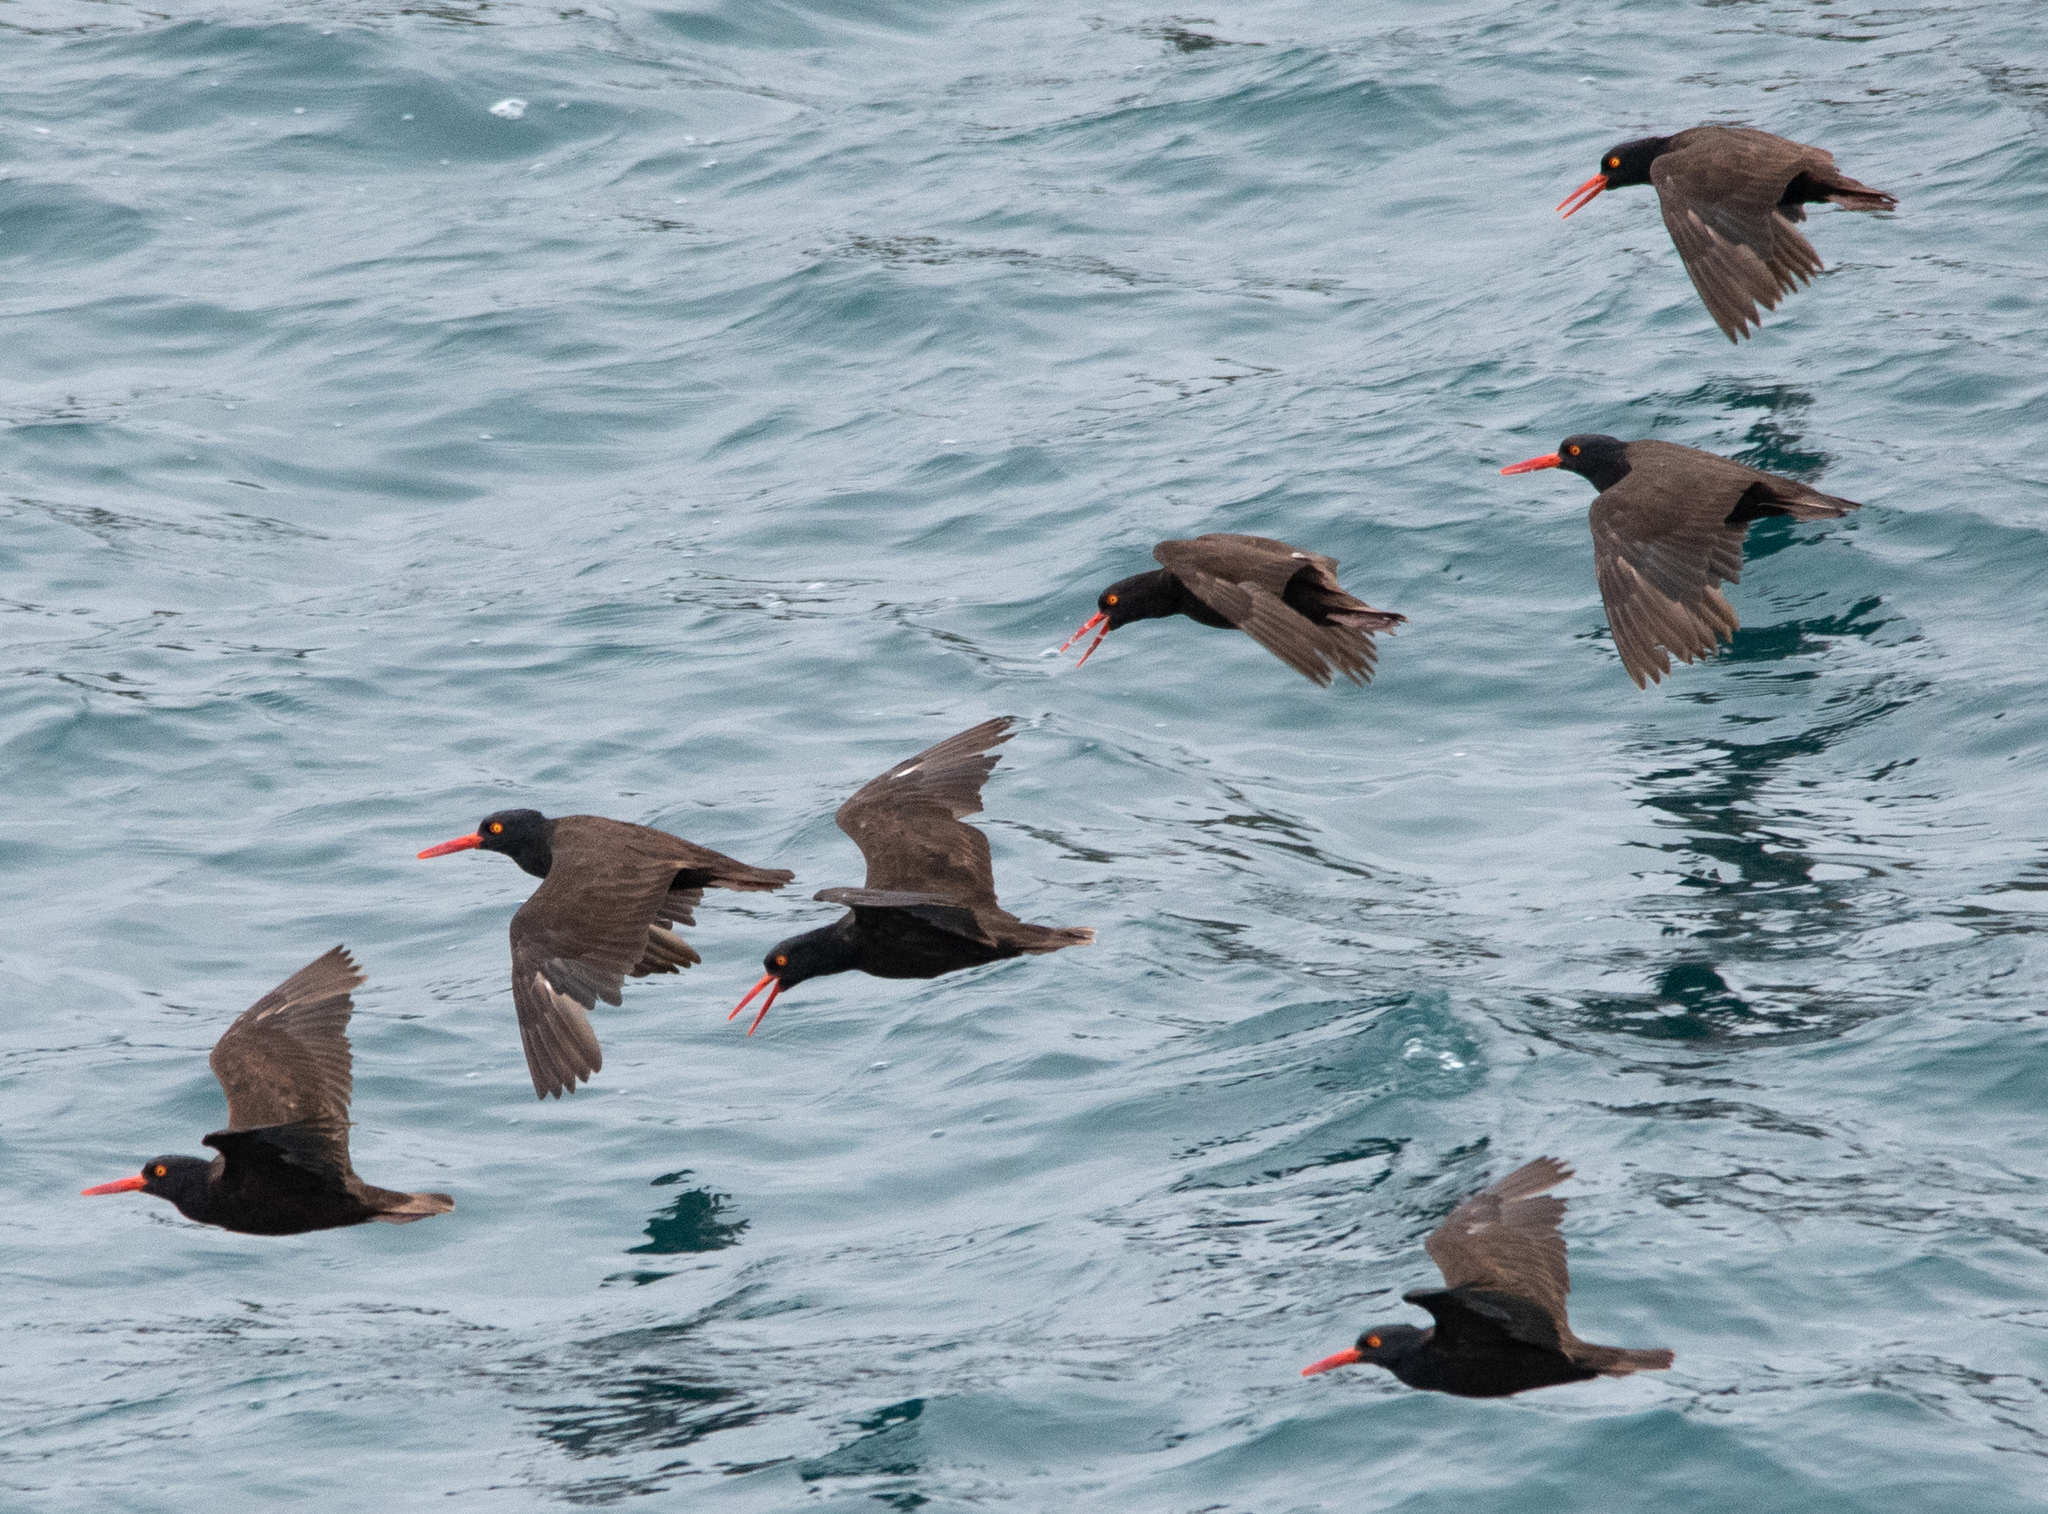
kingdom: Animalia
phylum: Chordata
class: Aves
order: Charadriiformes
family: Haematopodidae
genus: Haematopus
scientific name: Haematopus bachmani
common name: Black oystercatcher
